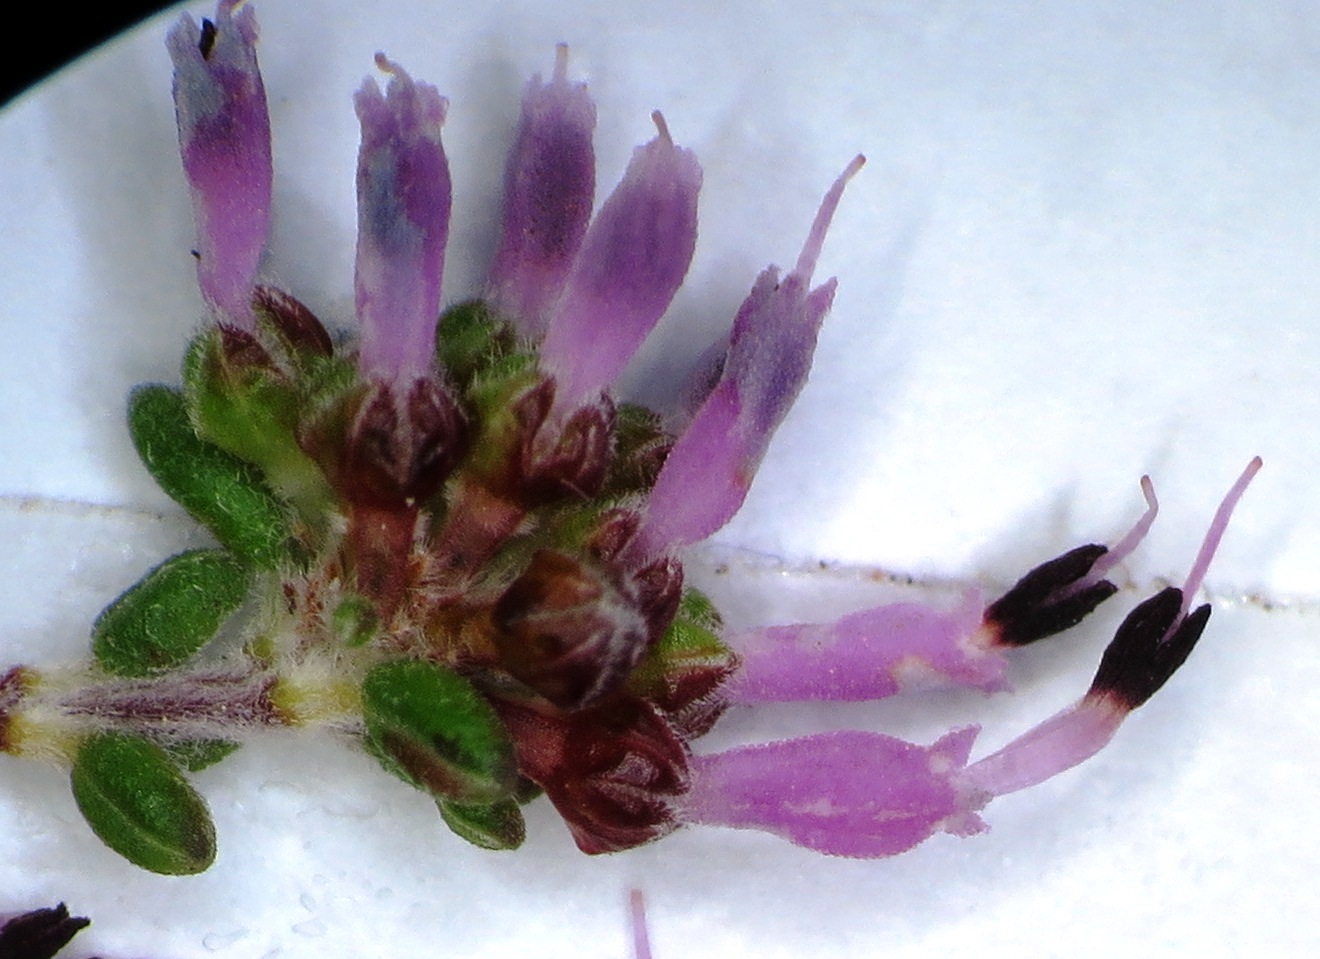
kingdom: Plantae
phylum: Tracheophyta
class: Magnoliopsida
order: Ericales
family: Ericaceae
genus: Erica
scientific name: Erica paucifolia
